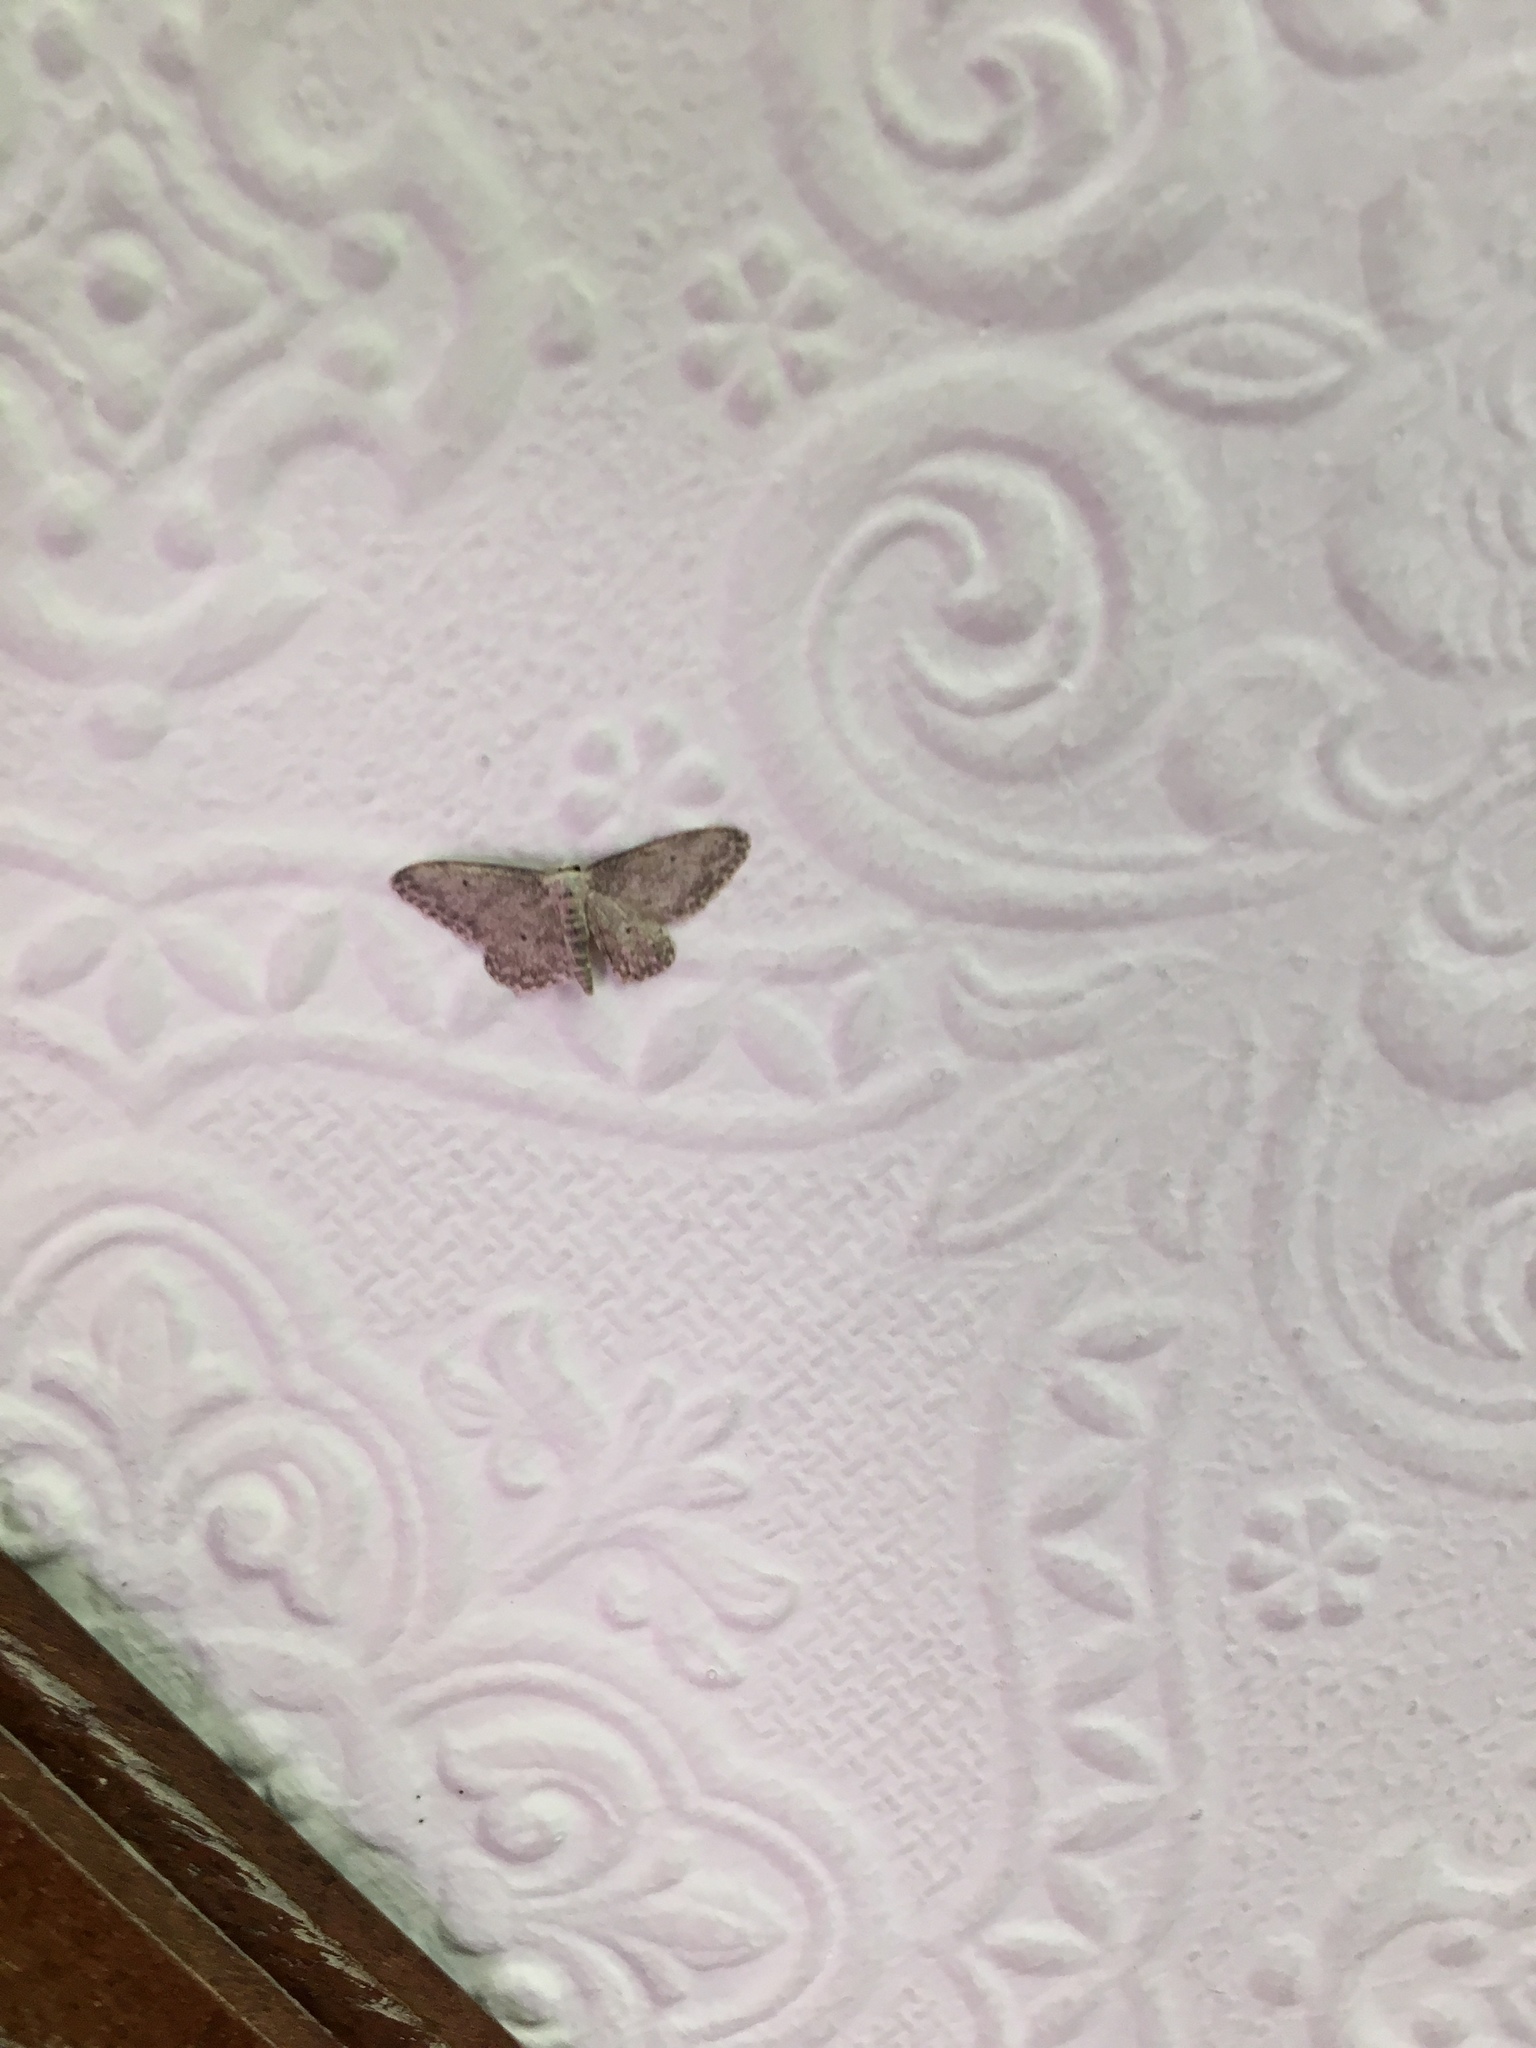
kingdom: Animalia
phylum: Arthropoda
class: Insecta
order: Lepidoptera
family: Geometridae
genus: Idaea
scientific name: Idaea seriata
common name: Small dusty wave
